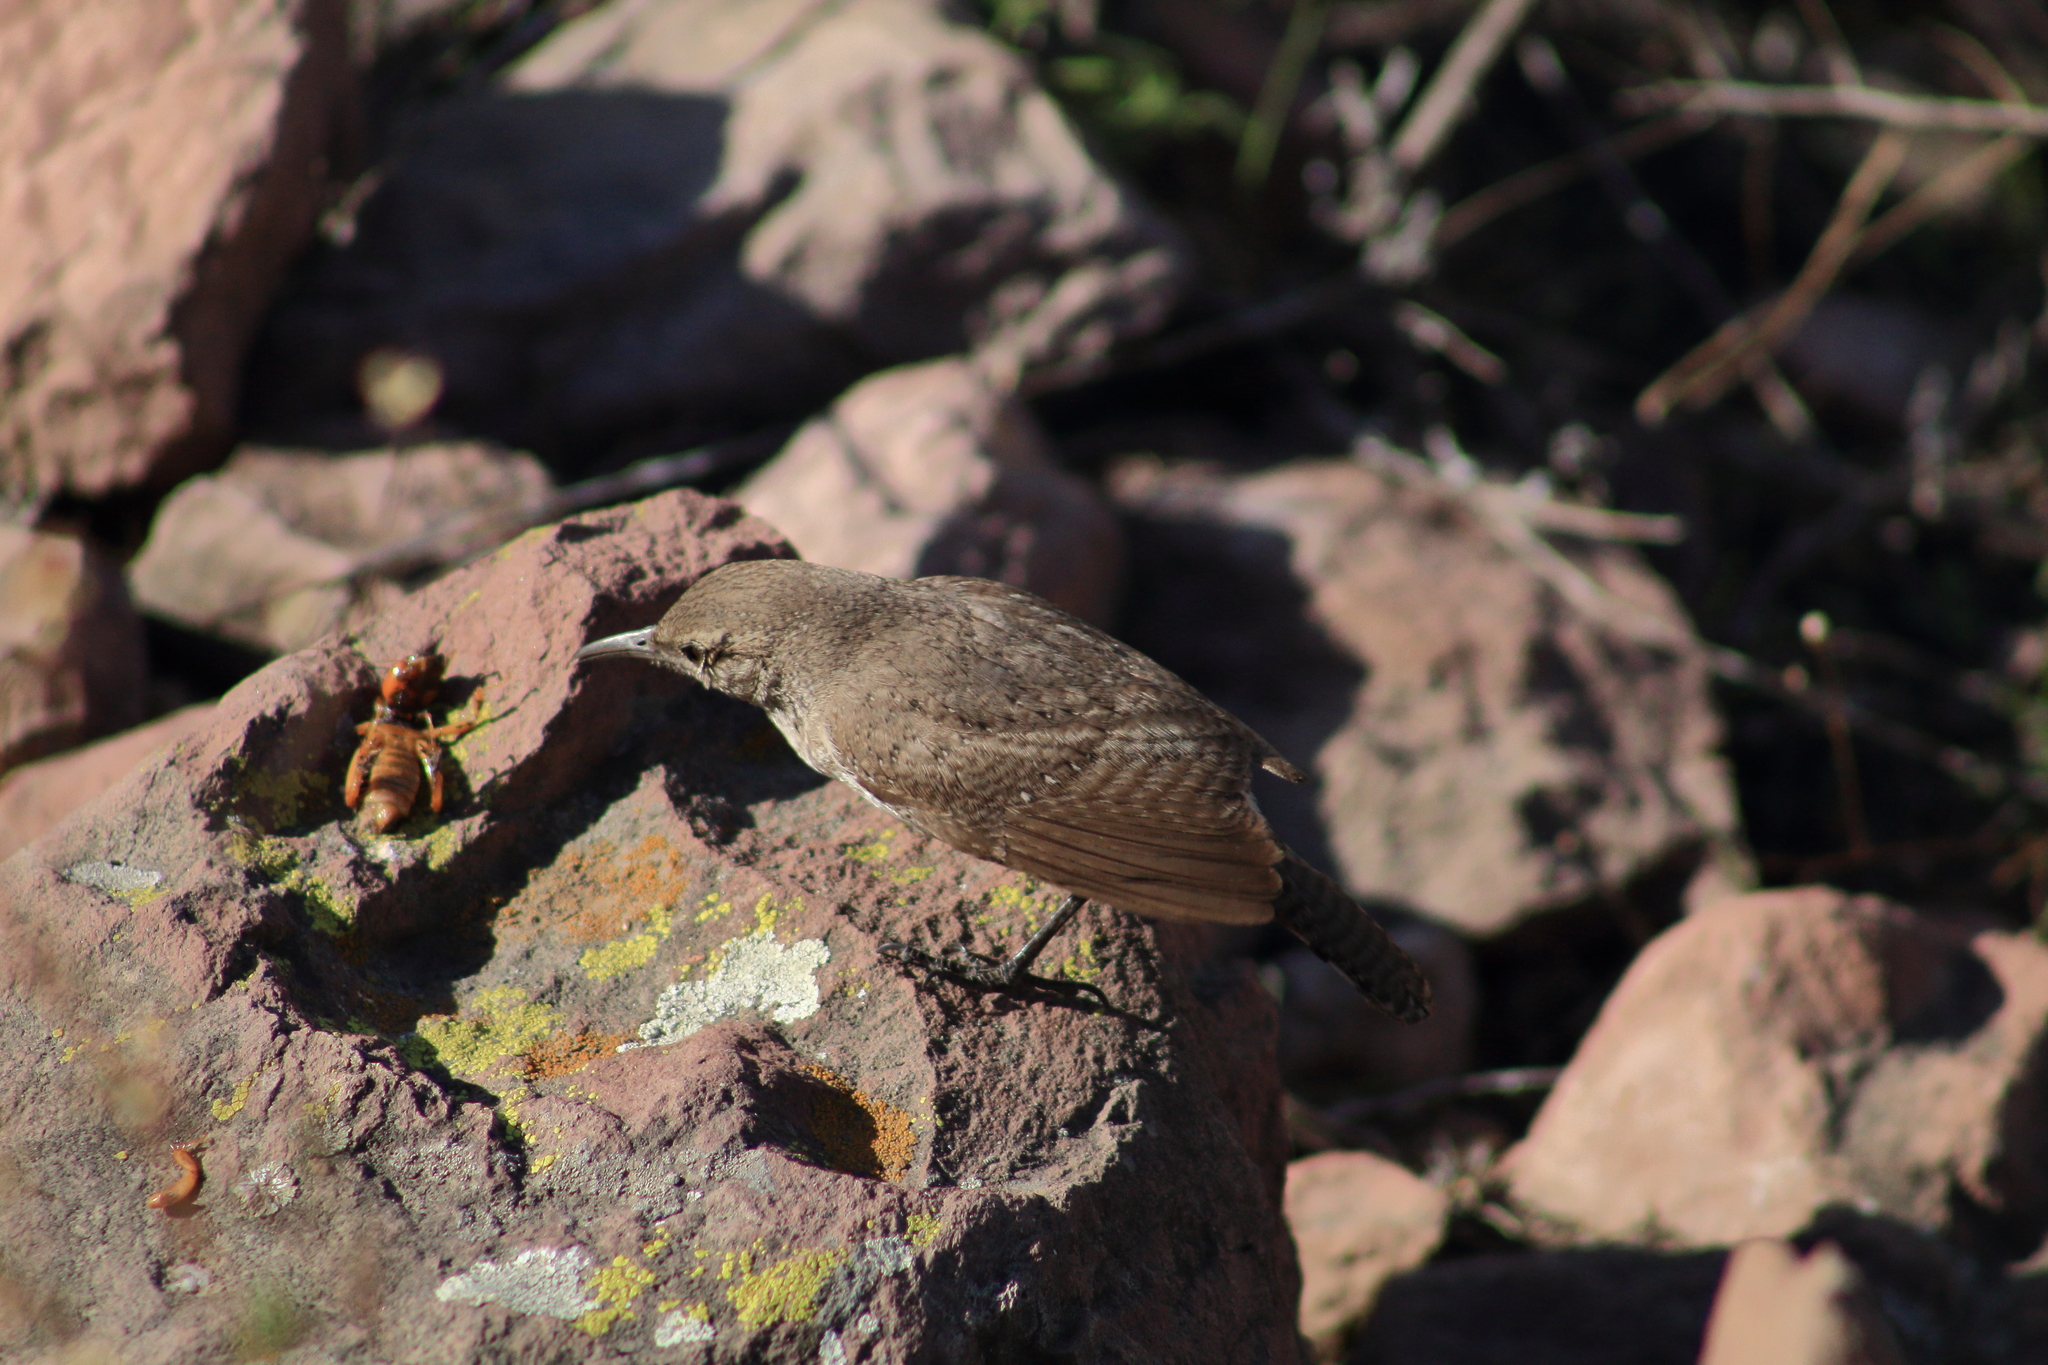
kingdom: Animalia
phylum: Chordata
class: Aves
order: Passeriformes
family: Troglodytidae
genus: Salpinctes
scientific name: Salpinctes obsoletus
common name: Rock wren
